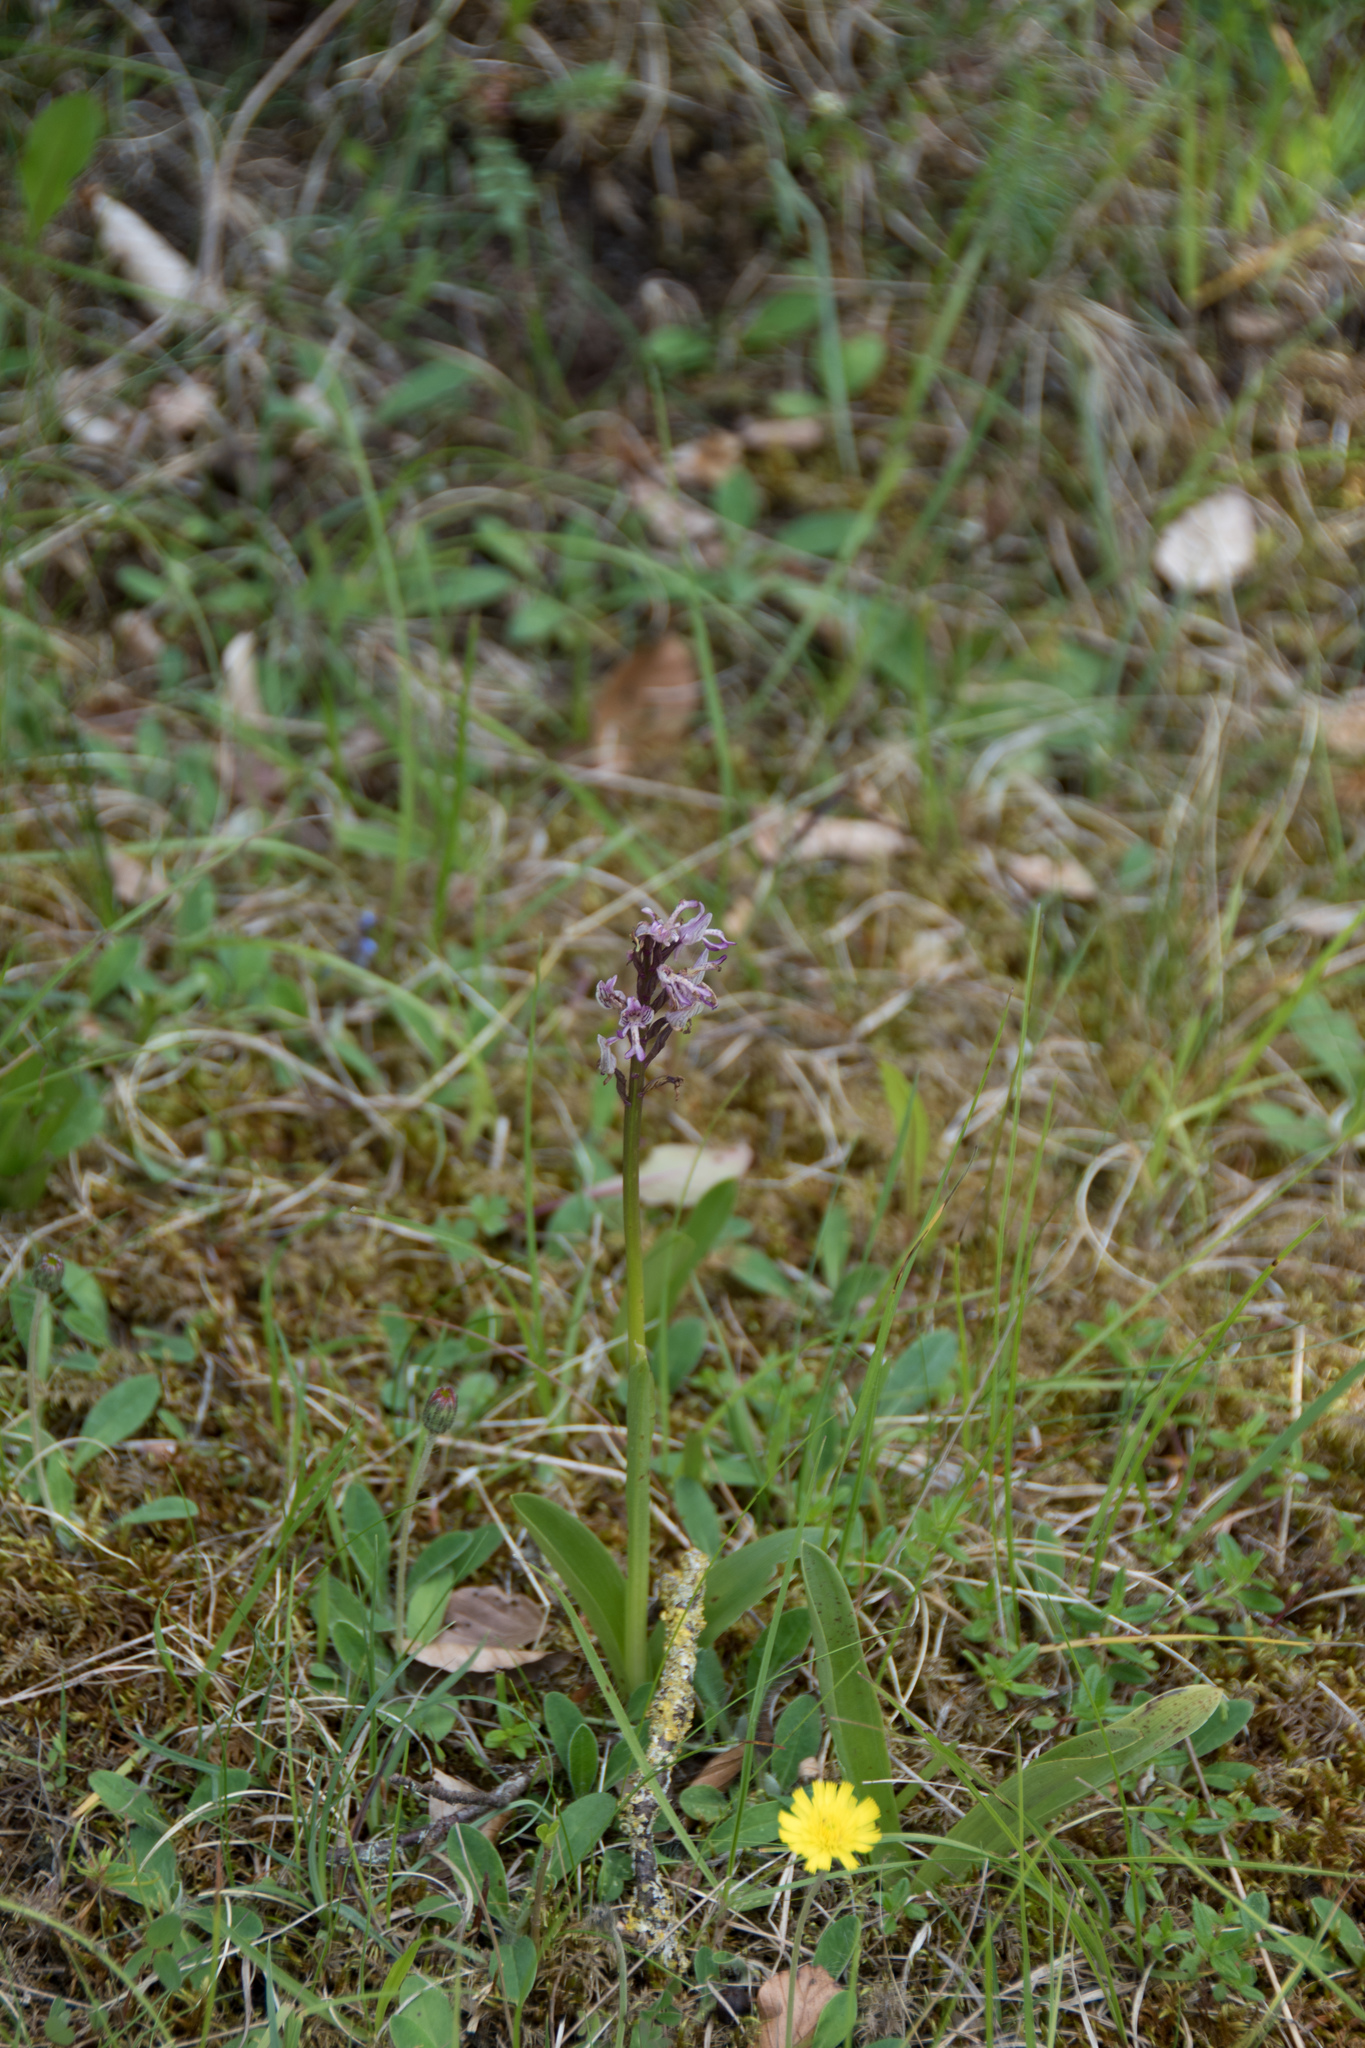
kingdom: Plantae
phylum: Tracheophyta
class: Liliopsida
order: Asparagales
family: Orchidaceae
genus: Orchis
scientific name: Orchis militaris
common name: Military orchid
